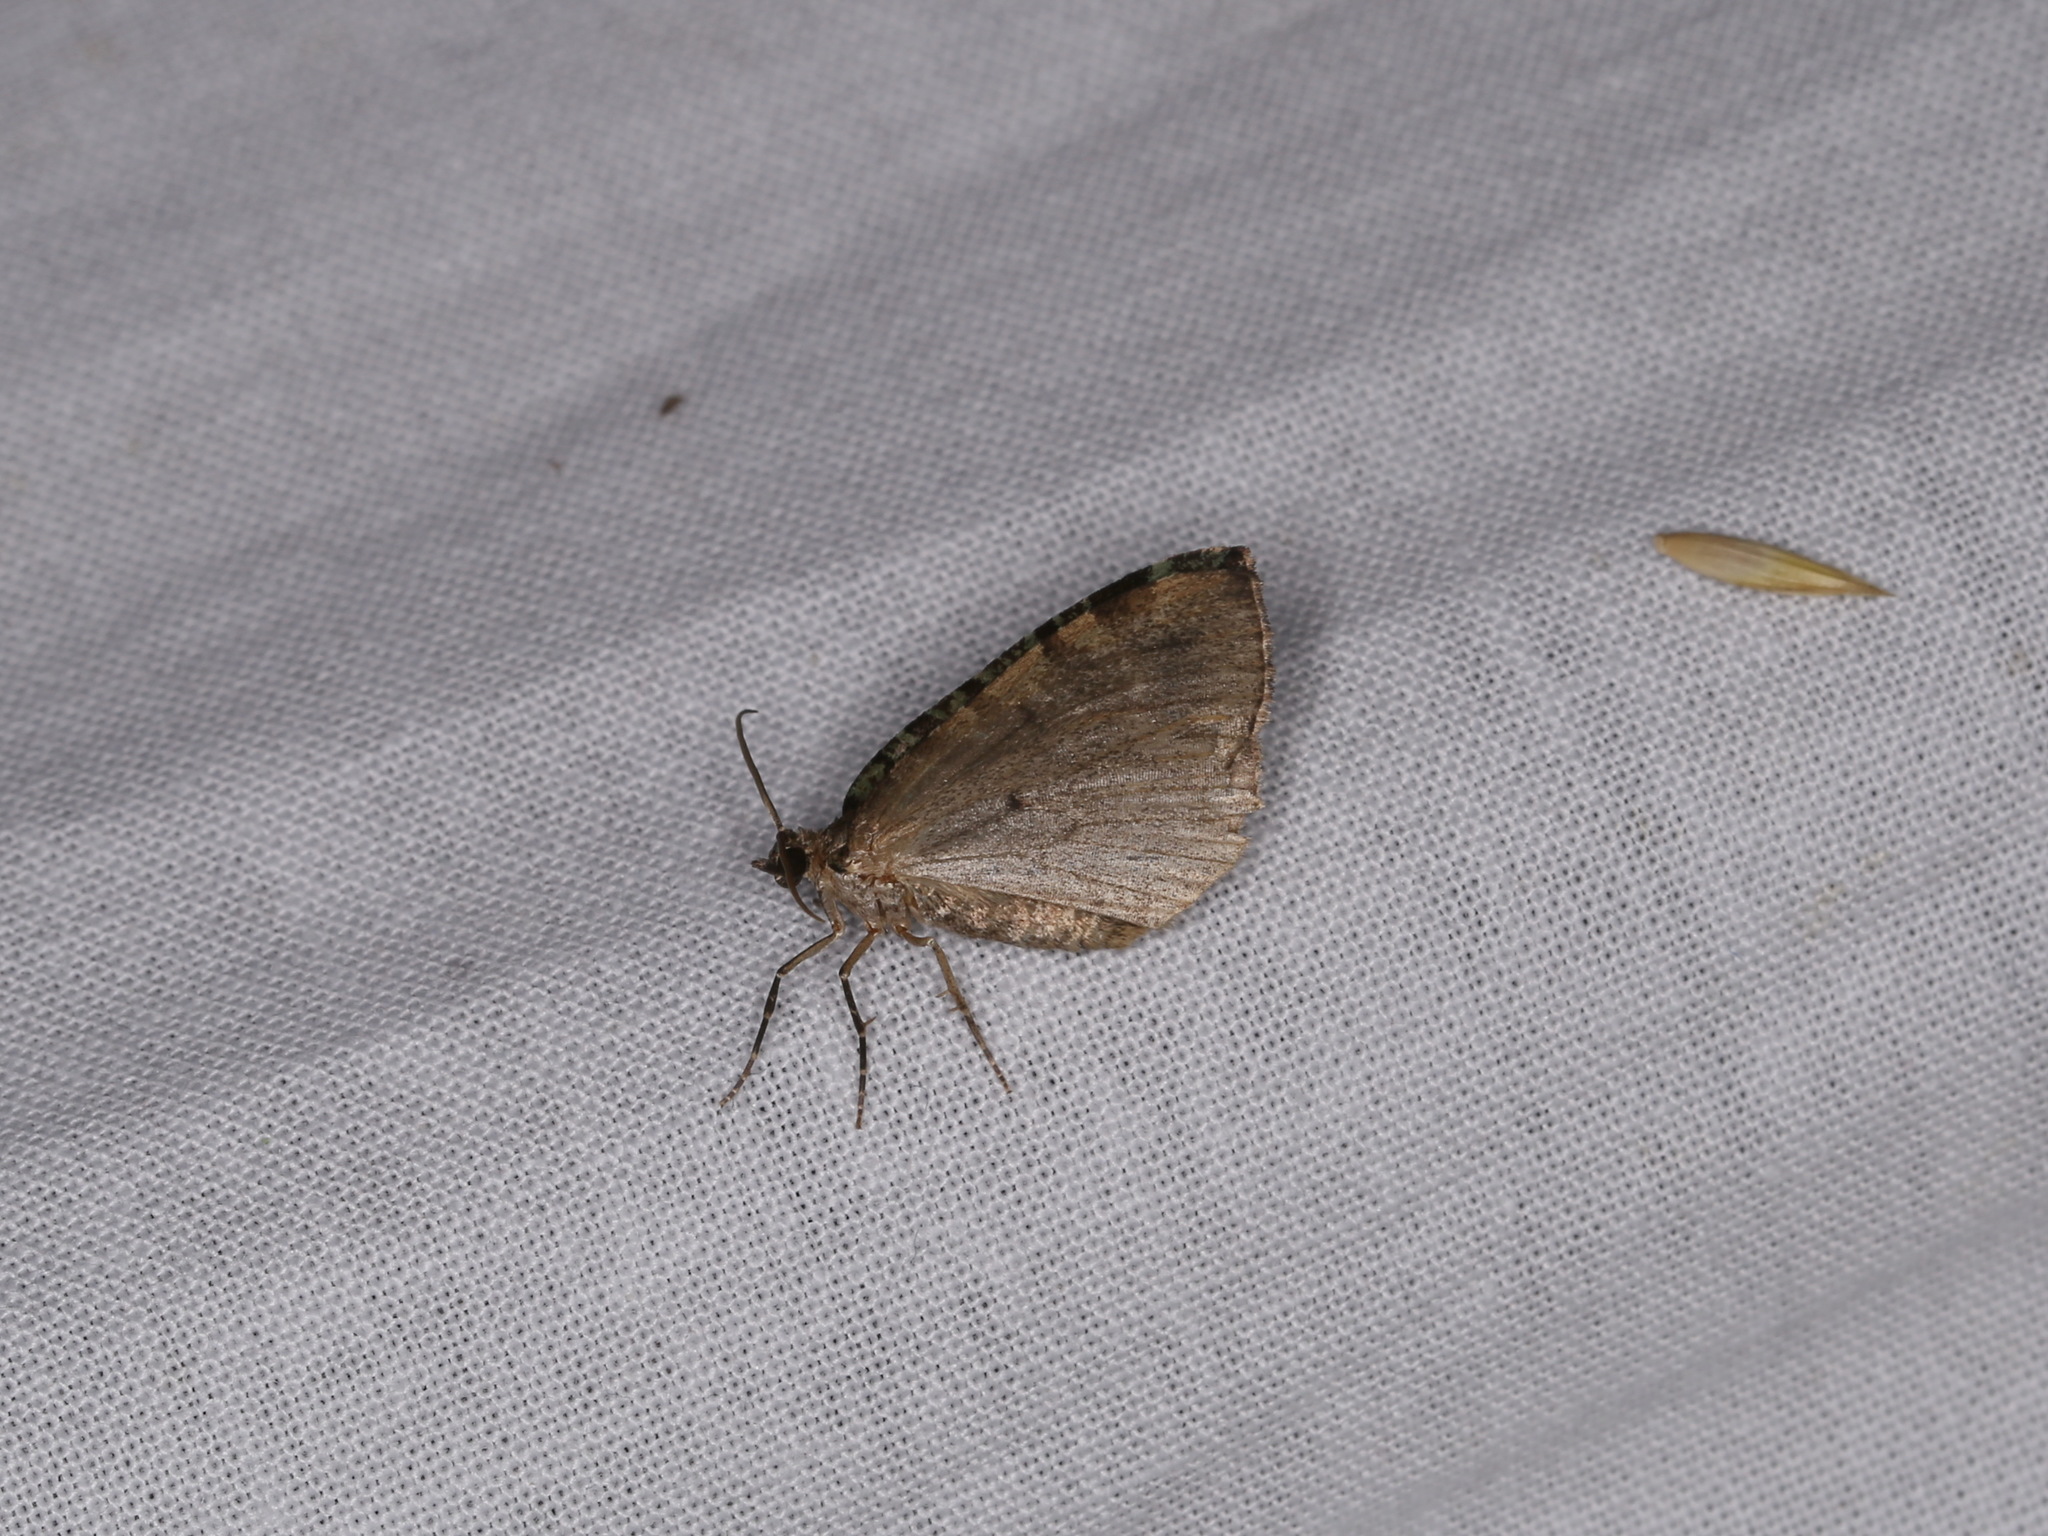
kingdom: Animalia
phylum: Arthropoda
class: Insecta
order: Lepidoptera
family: Geometridae
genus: Hydriomena
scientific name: Hydriomena furcata
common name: July highflyer
